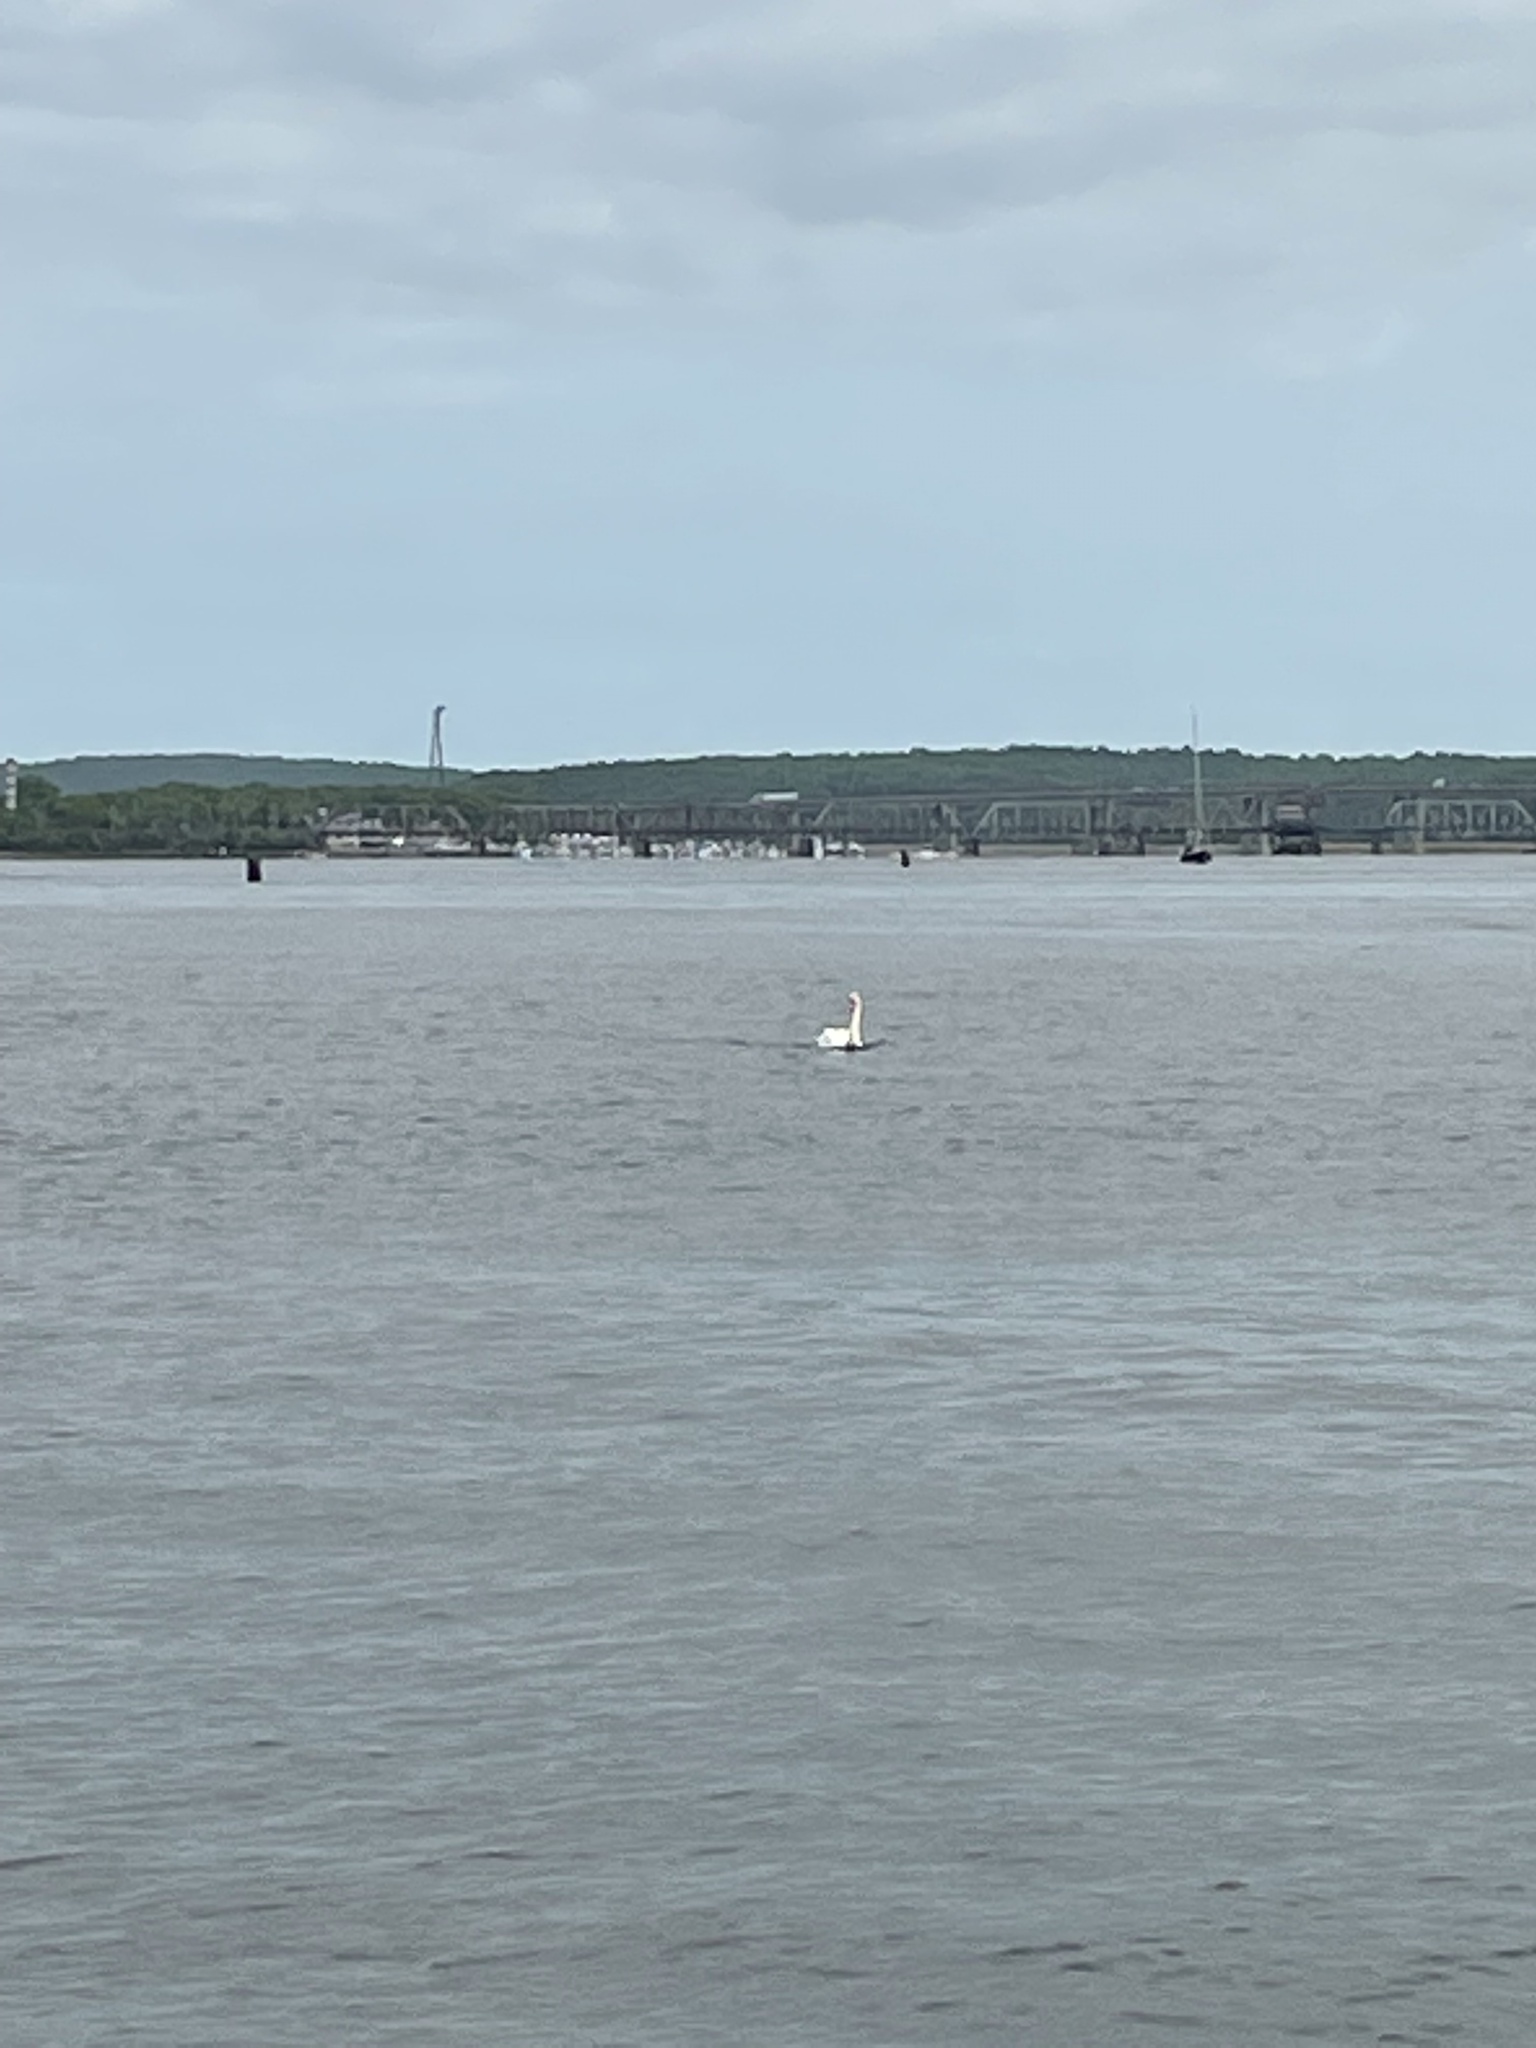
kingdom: Animalia
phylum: Chordata
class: Aves
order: Anseriformes
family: Anatidae
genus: Cygnus
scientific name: Cygnus olor
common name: Mute swan
